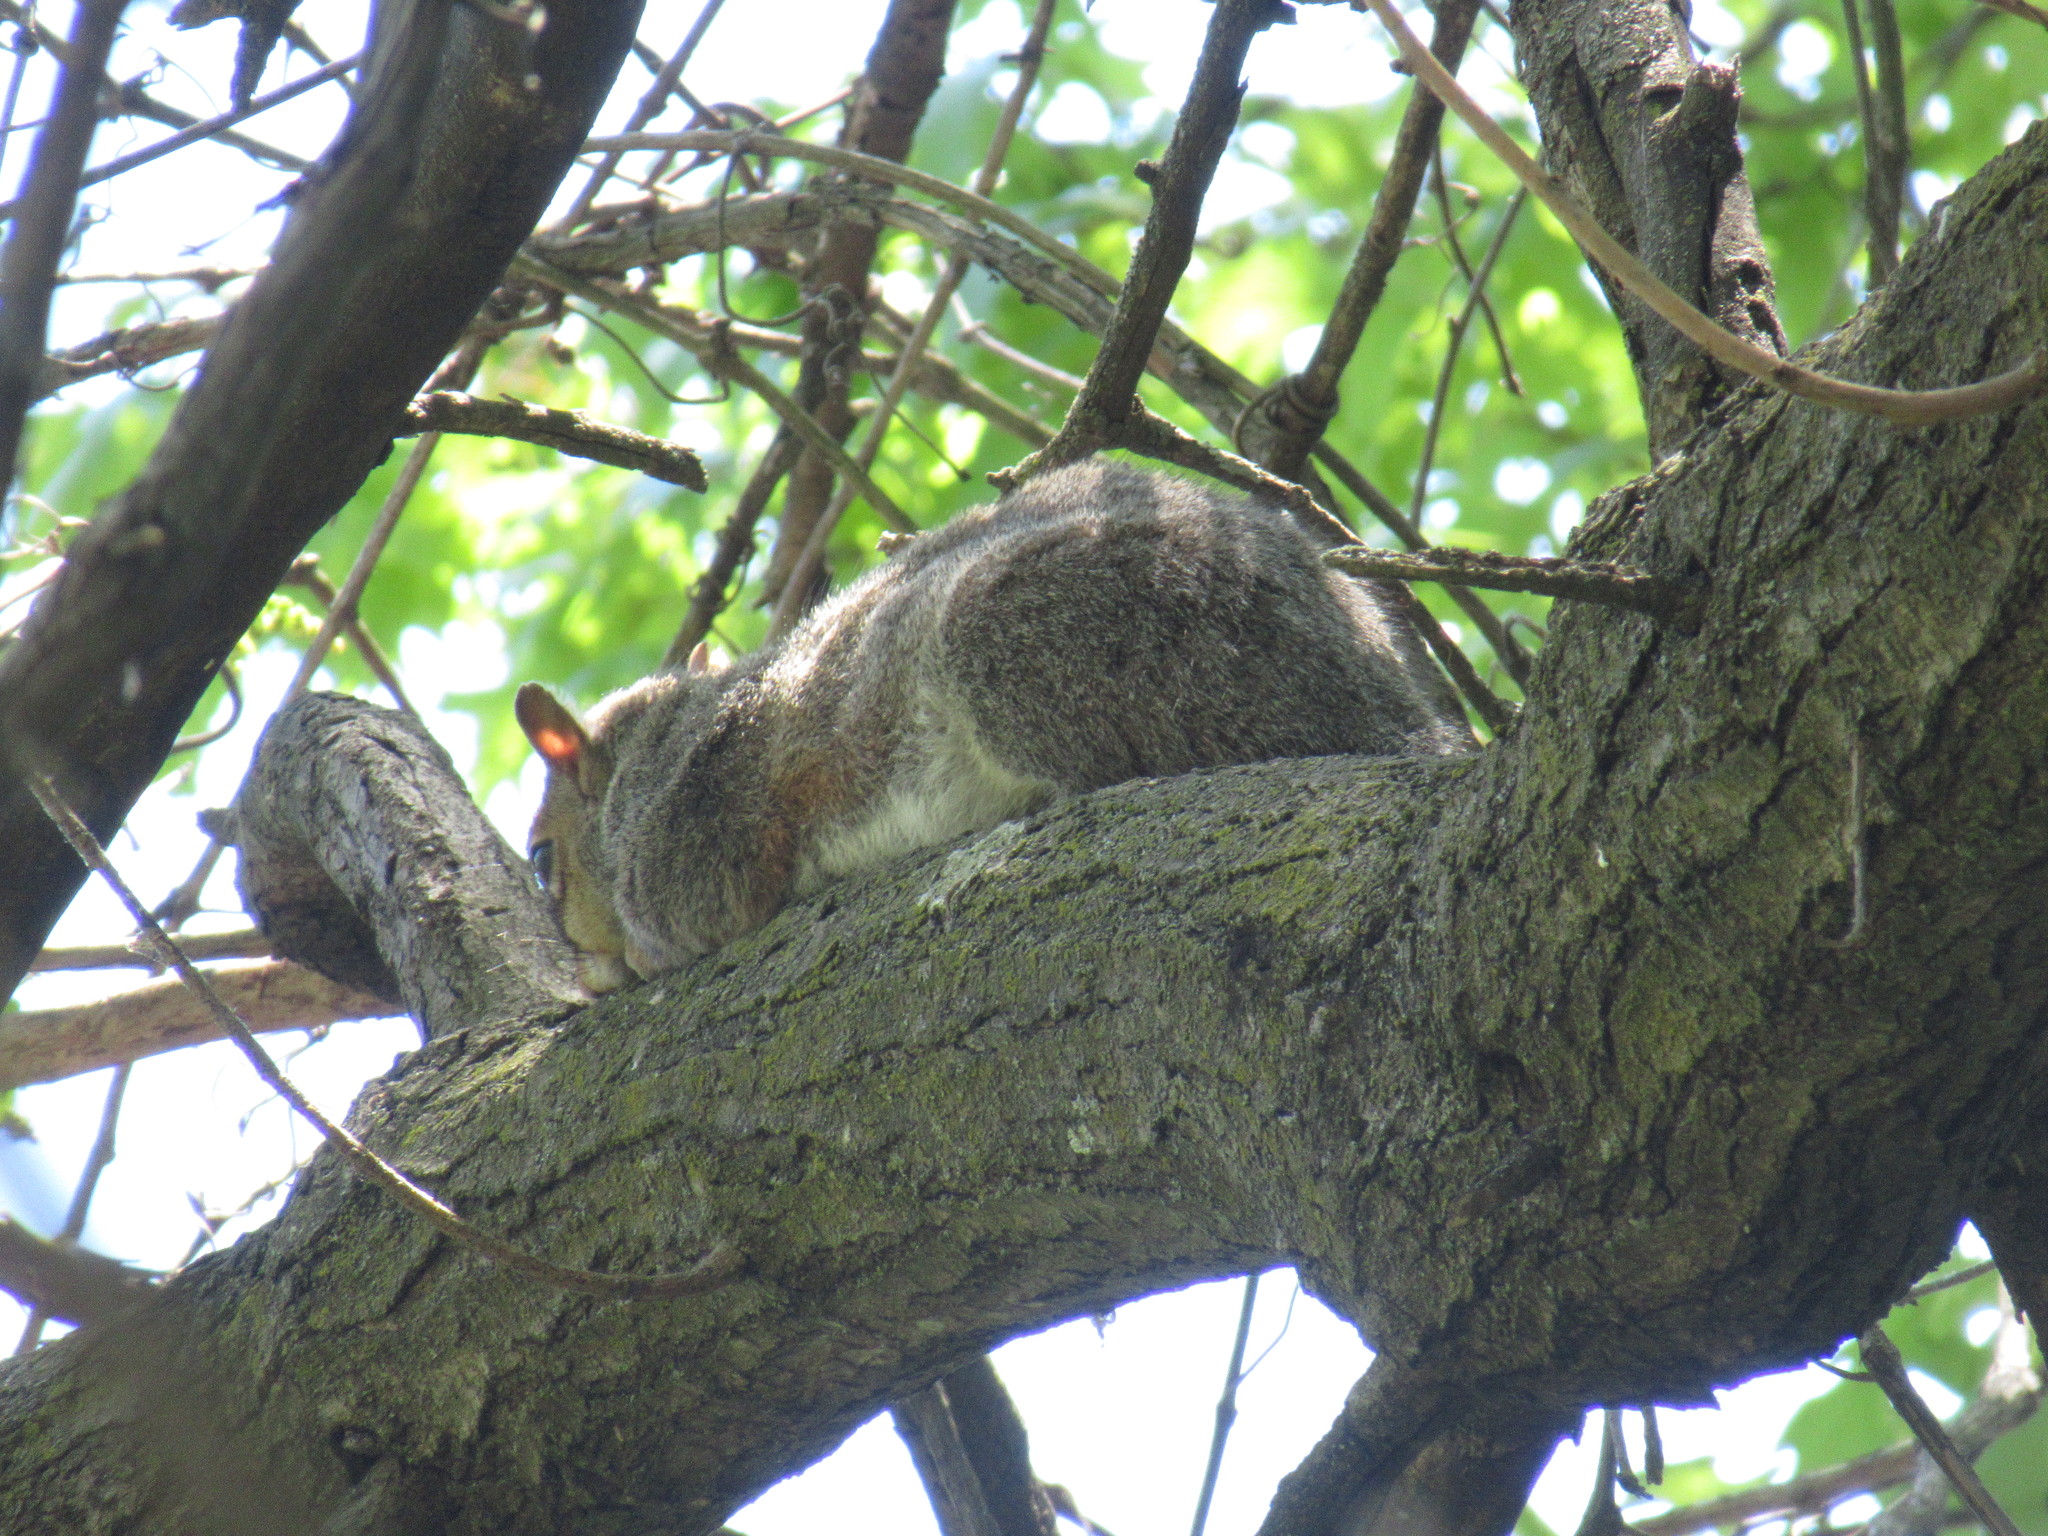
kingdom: Animalia
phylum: Chordata
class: Mammalia
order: Rodentia
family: Sciuridae
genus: Sciurus
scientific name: Sciurus carolinensis
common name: Eastern gray squirrel
